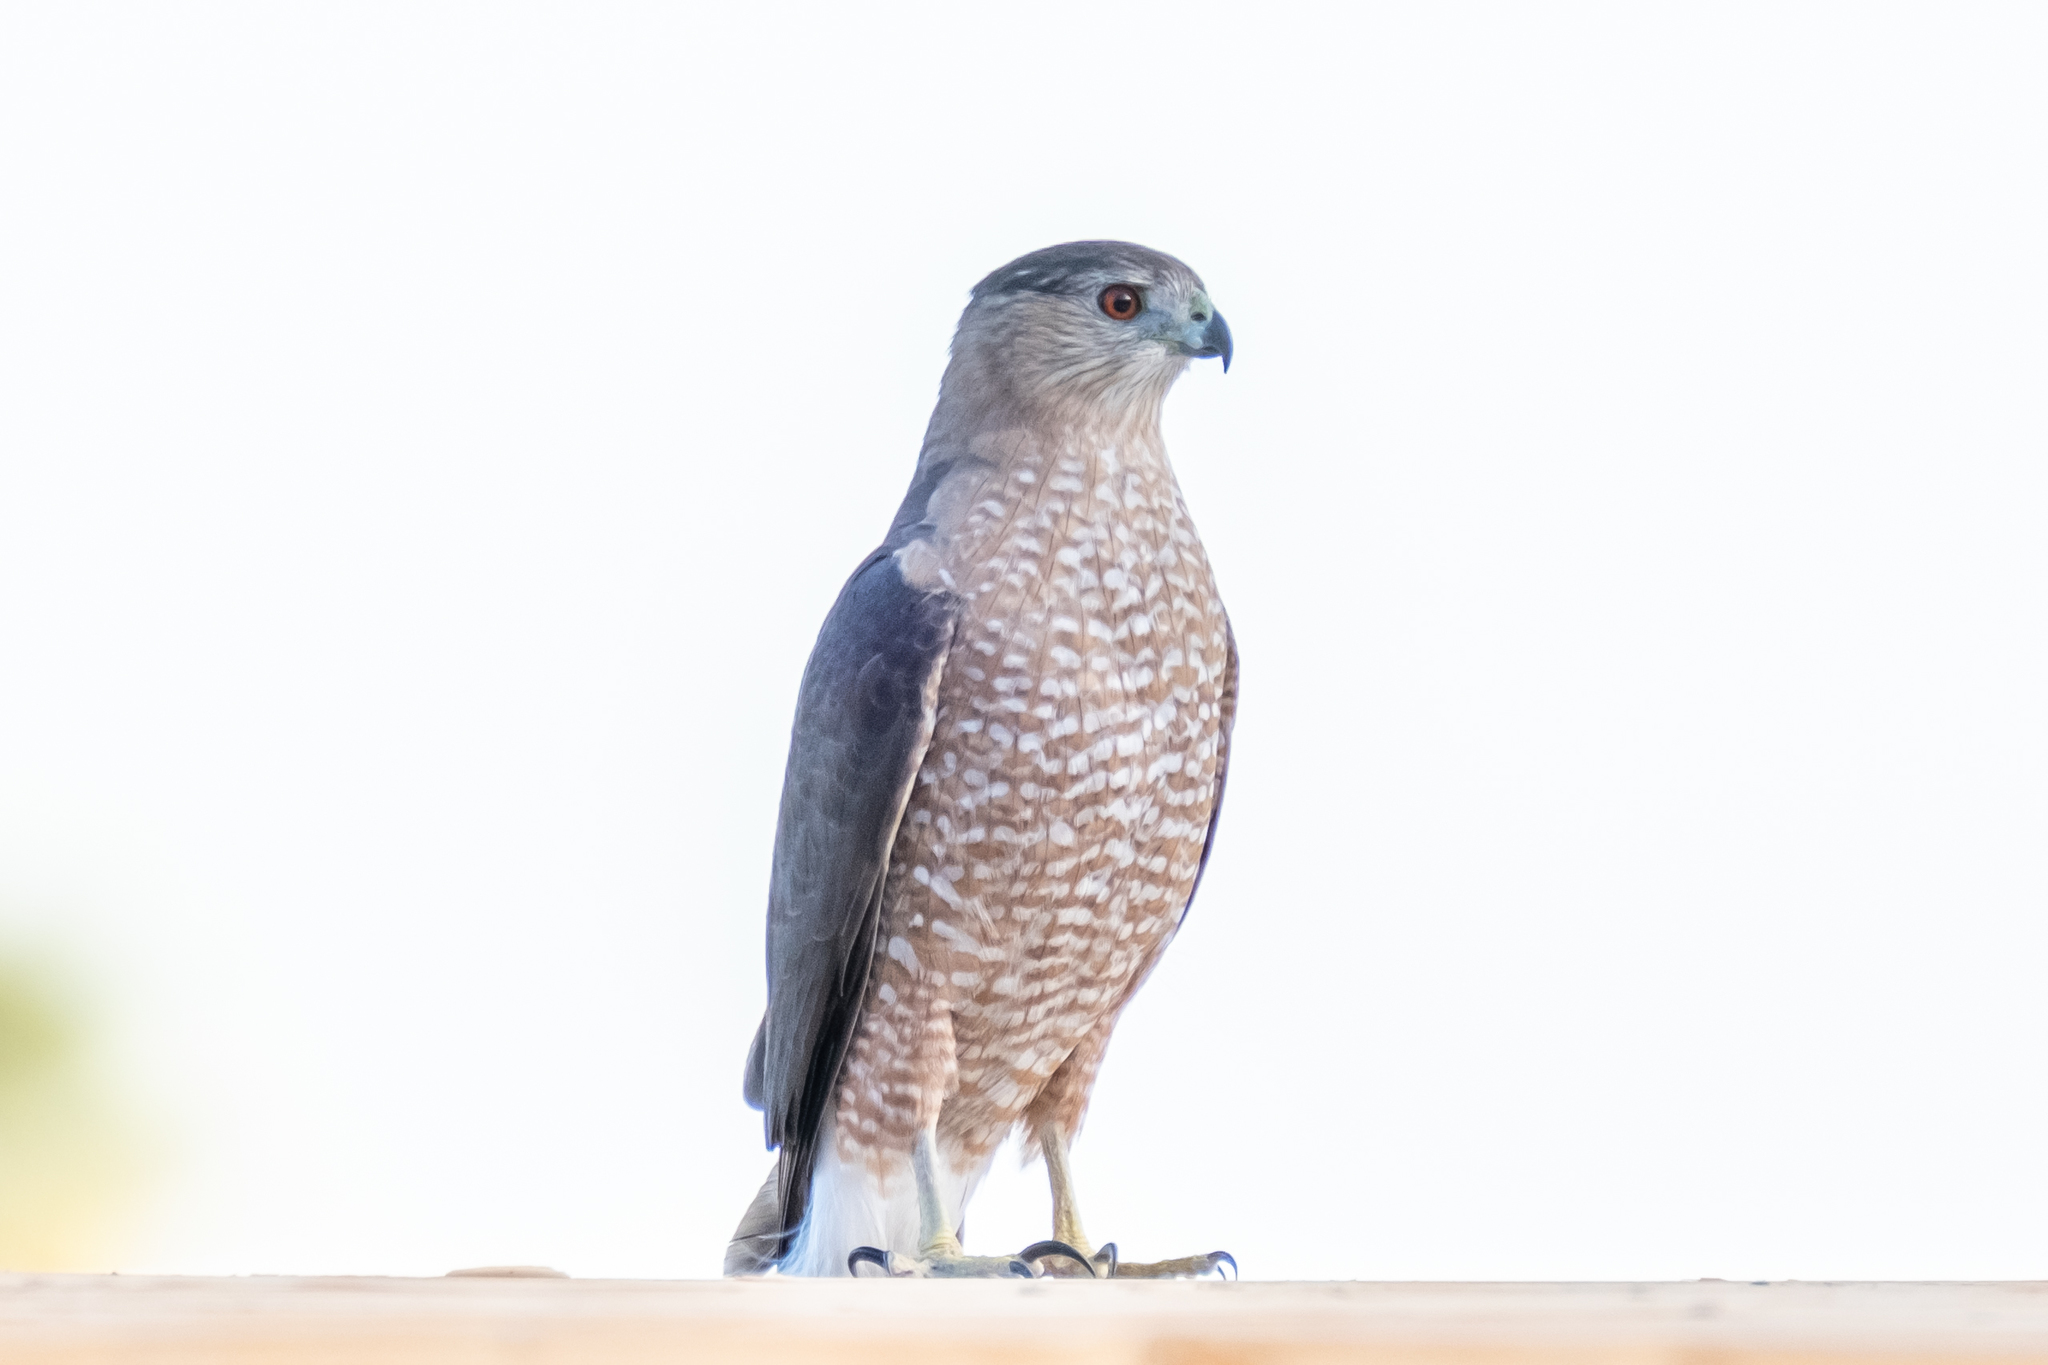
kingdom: Animalia
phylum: Chordata
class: Aves
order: Accipitriformes
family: Accipitridae
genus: Accipiter
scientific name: Accipiter cooperii
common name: Cooper's hawk
